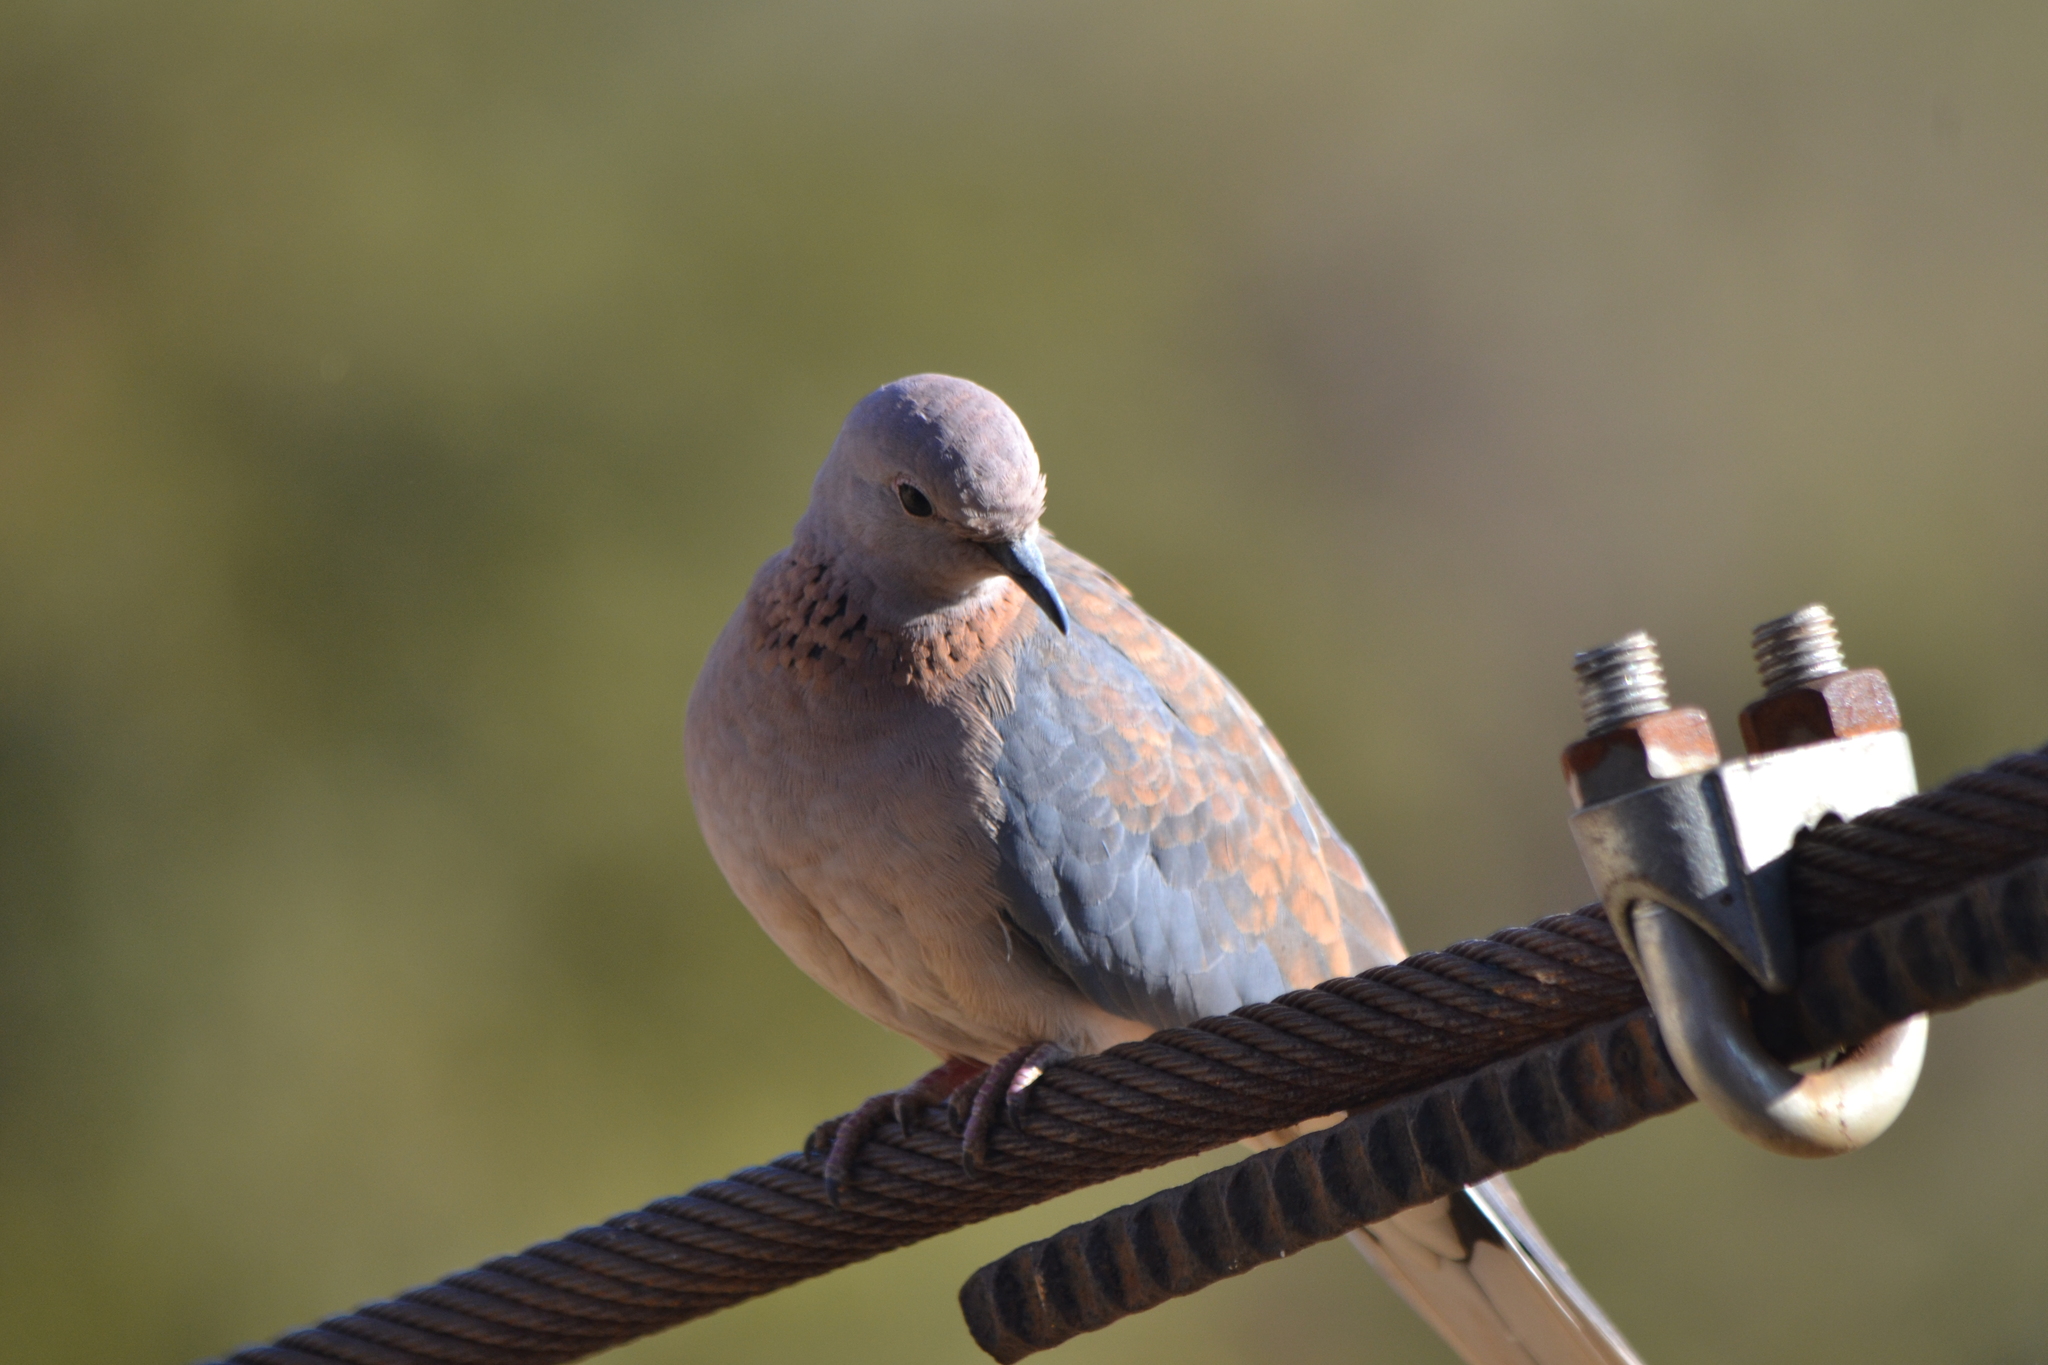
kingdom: Animalia
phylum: Chordata
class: Aves
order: Columbiformes
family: Columbidae
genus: Spilopelia
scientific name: Spilopelia senegalensis
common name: Laughing dove
